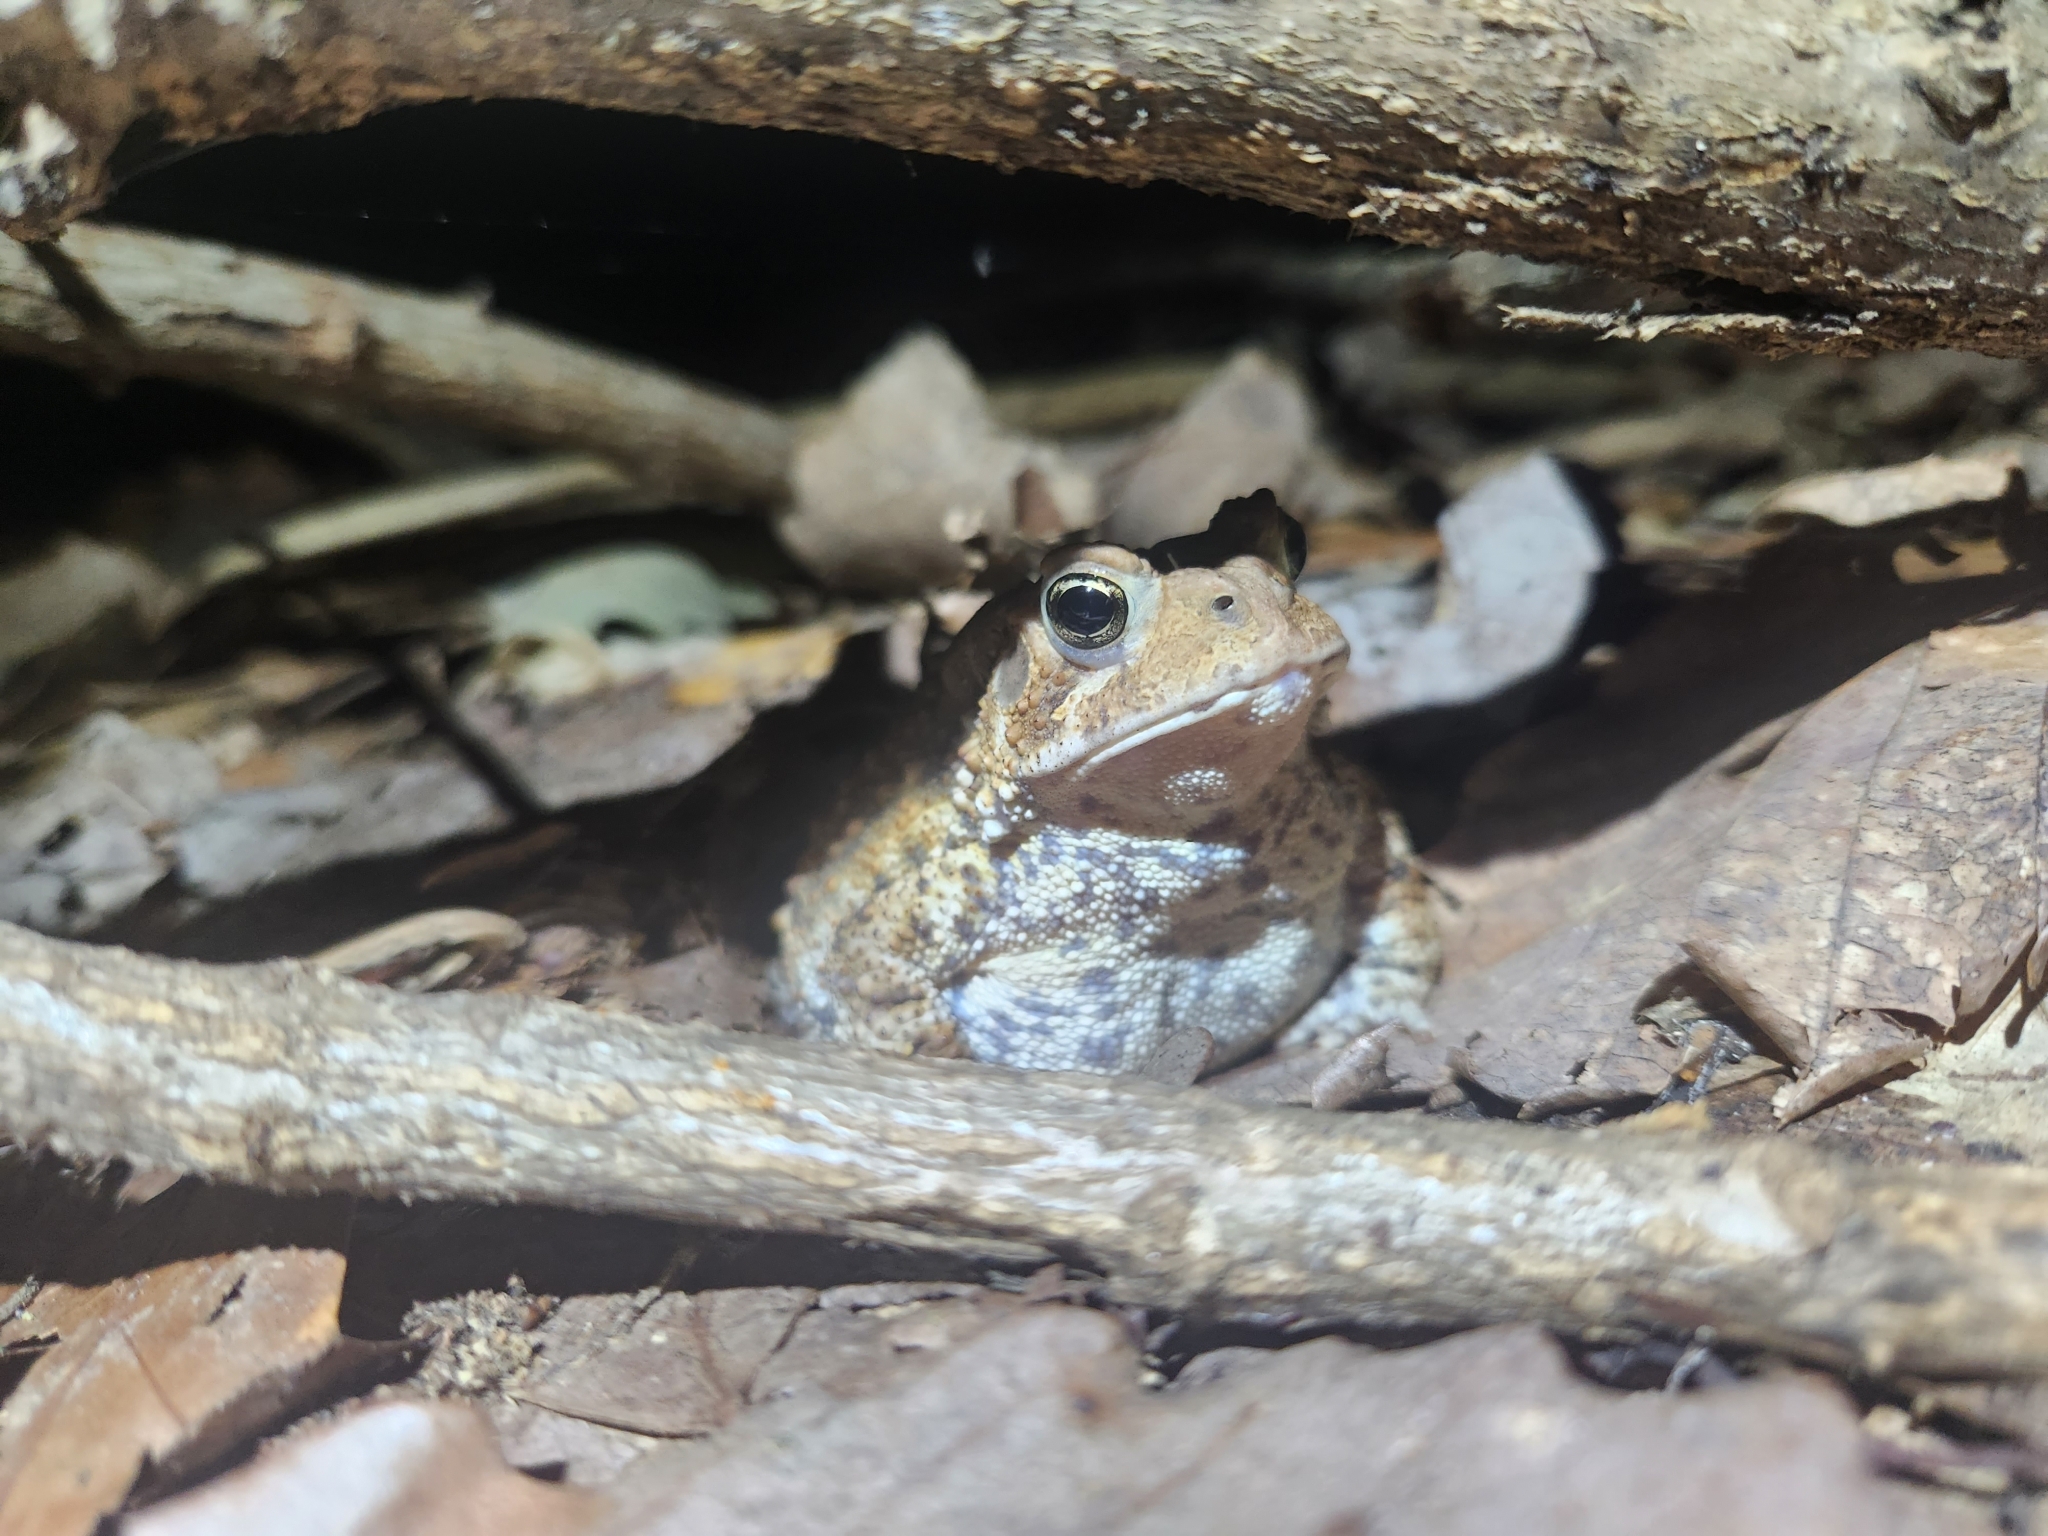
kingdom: Animalia
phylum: Chordata
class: Amphibia
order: Anura
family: Bufonidae
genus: Anaxyrus
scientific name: Anaxyrus americanus
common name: American toad
